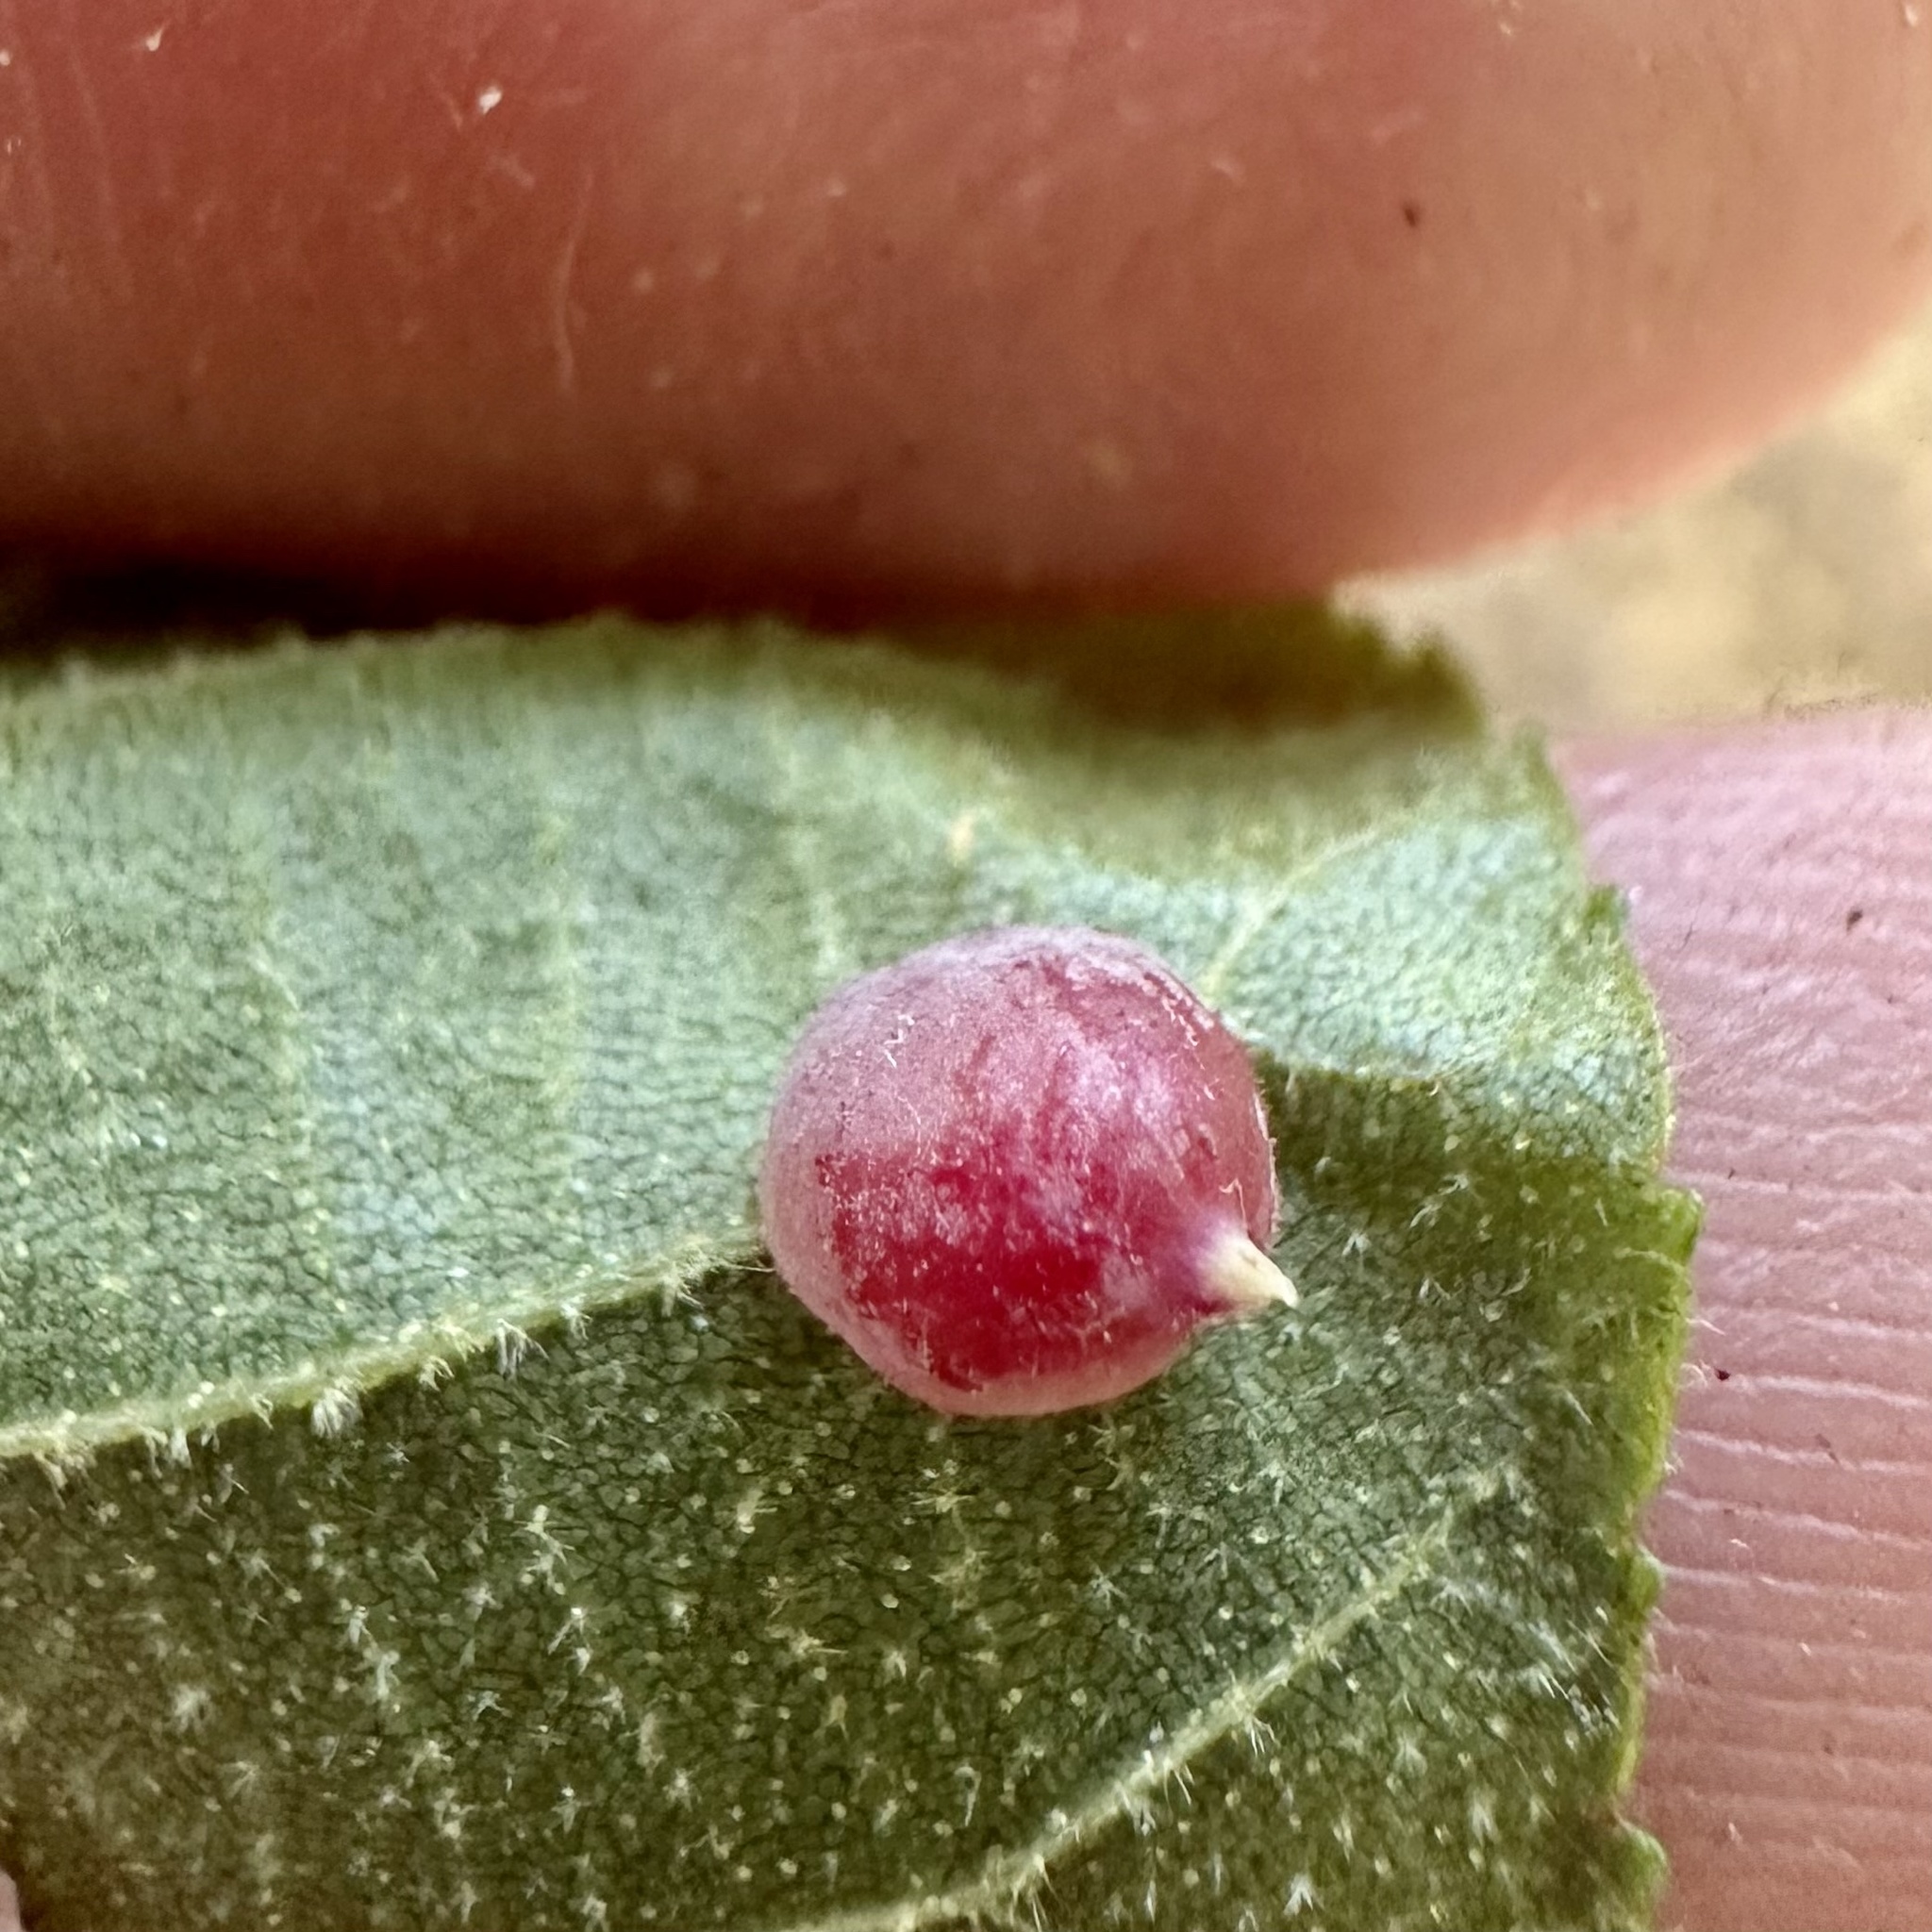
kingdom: Animalia
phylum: Arthropoda
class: Insecta
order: Diptera
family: Cecidomyiidae
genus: Caryomyia
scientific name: Caryomyia sanguinolenta
